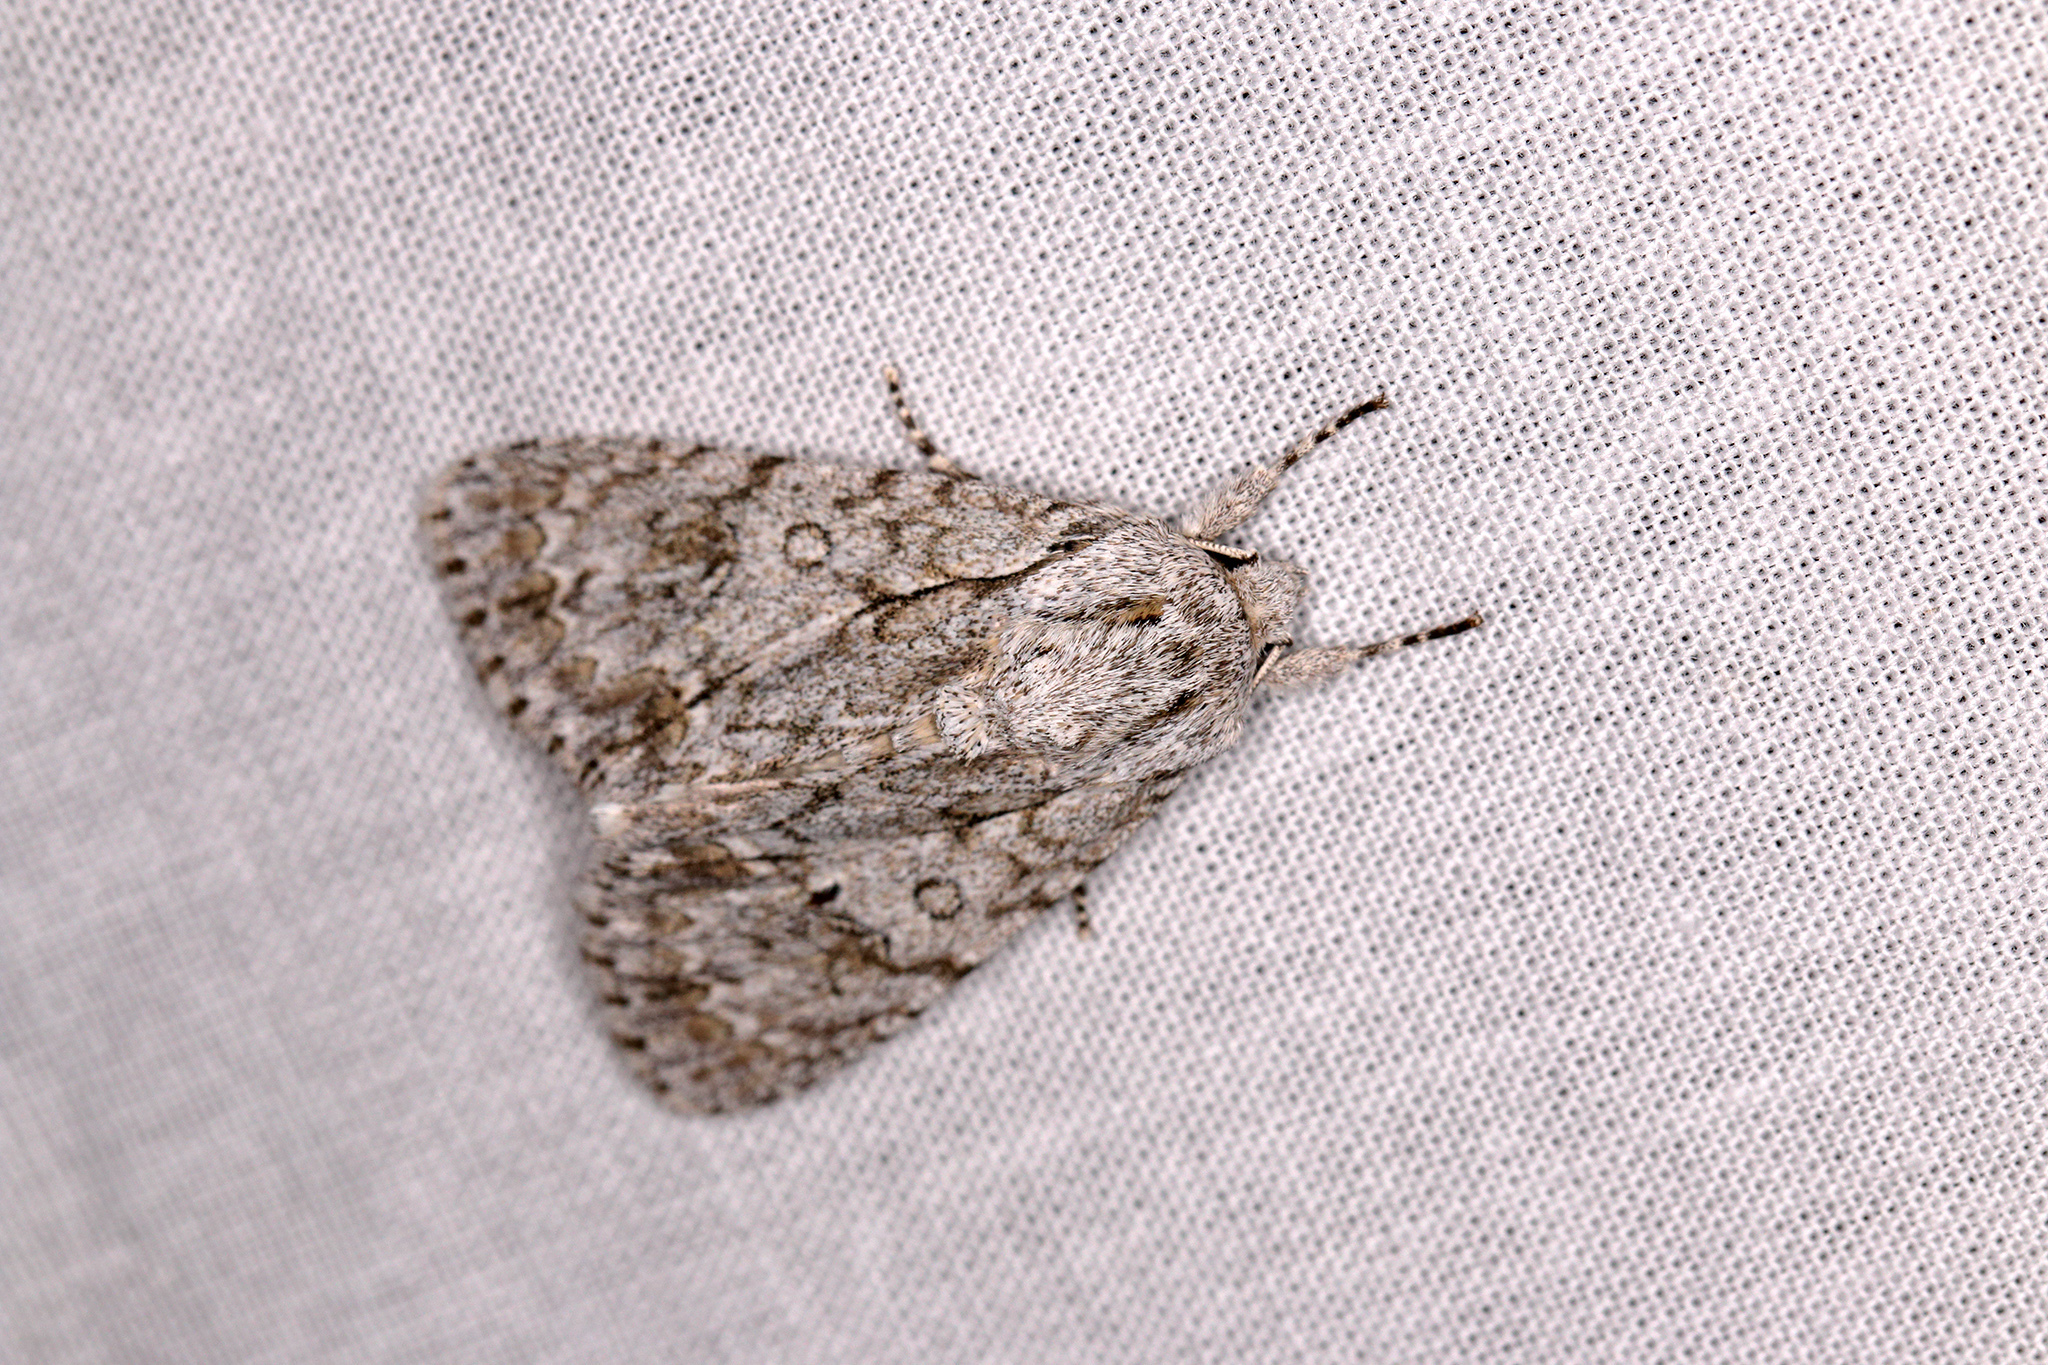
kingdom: Animalia
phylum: Arthropoda
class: Insecta
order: Lepidoptera
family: Noctuidae
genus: Acronicta
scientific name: Acronicta aceris
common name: Sycamore
